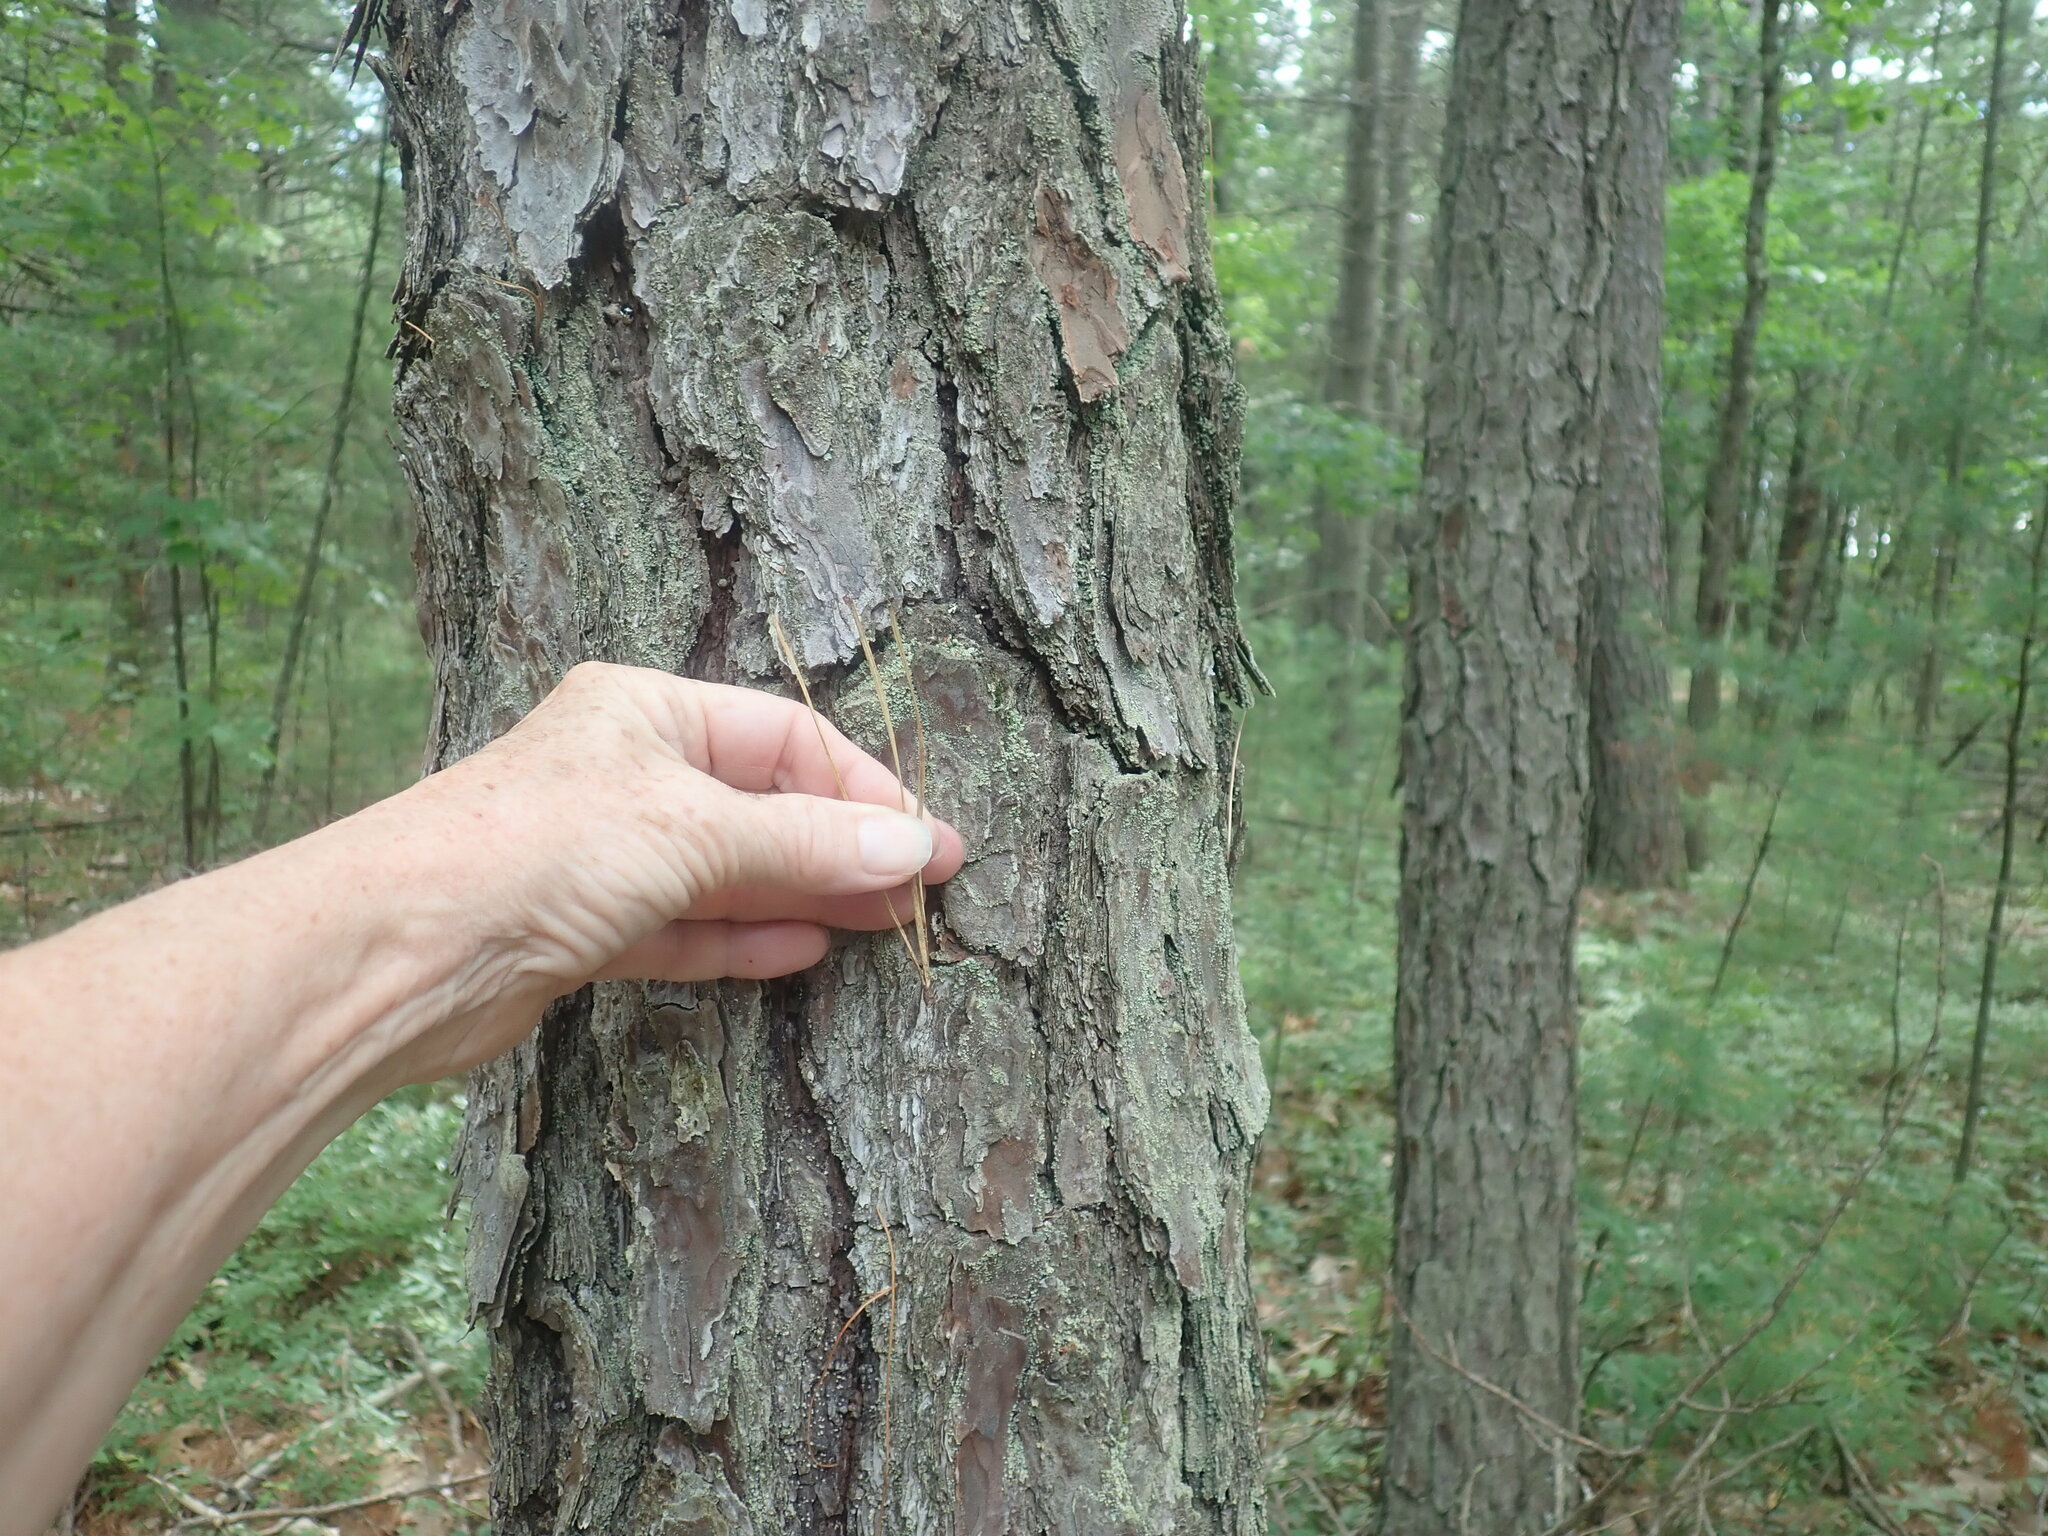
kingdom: Plantae
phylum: Tracheophyta
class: Pinopsida
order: Pinales
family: Pinaceae
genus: Pinus
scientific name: Pinus rigida
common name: Pitch pine
